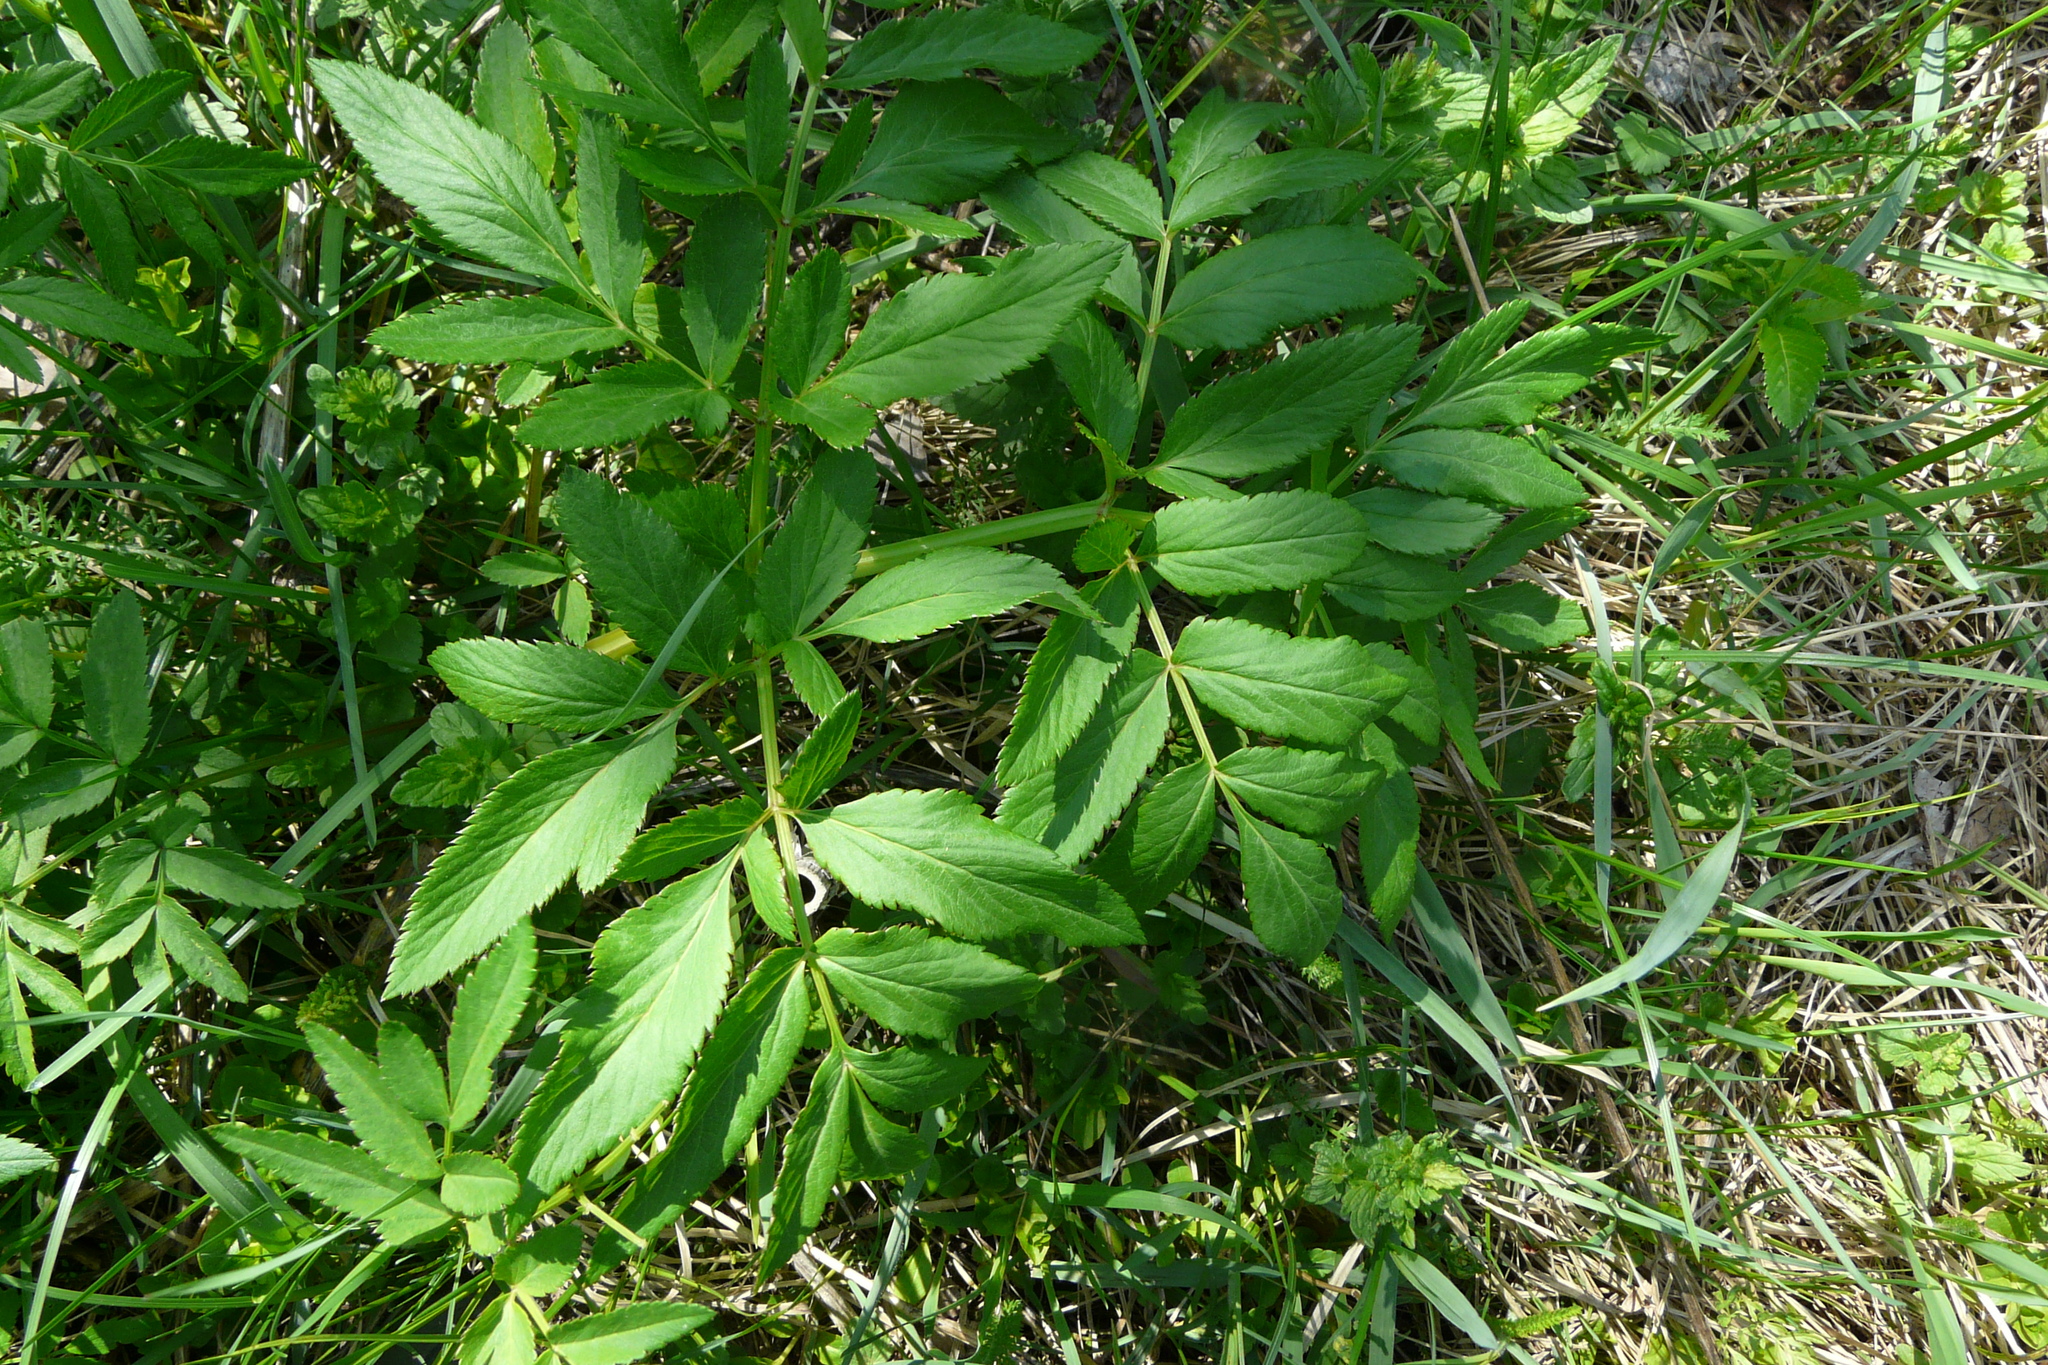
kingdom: Plantae
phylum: Tracheophyta
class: Magnoliopsida
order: Apiales
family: Apiaceae
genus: Angelica
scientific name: Angelica sylvestris
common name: Wild angelica
